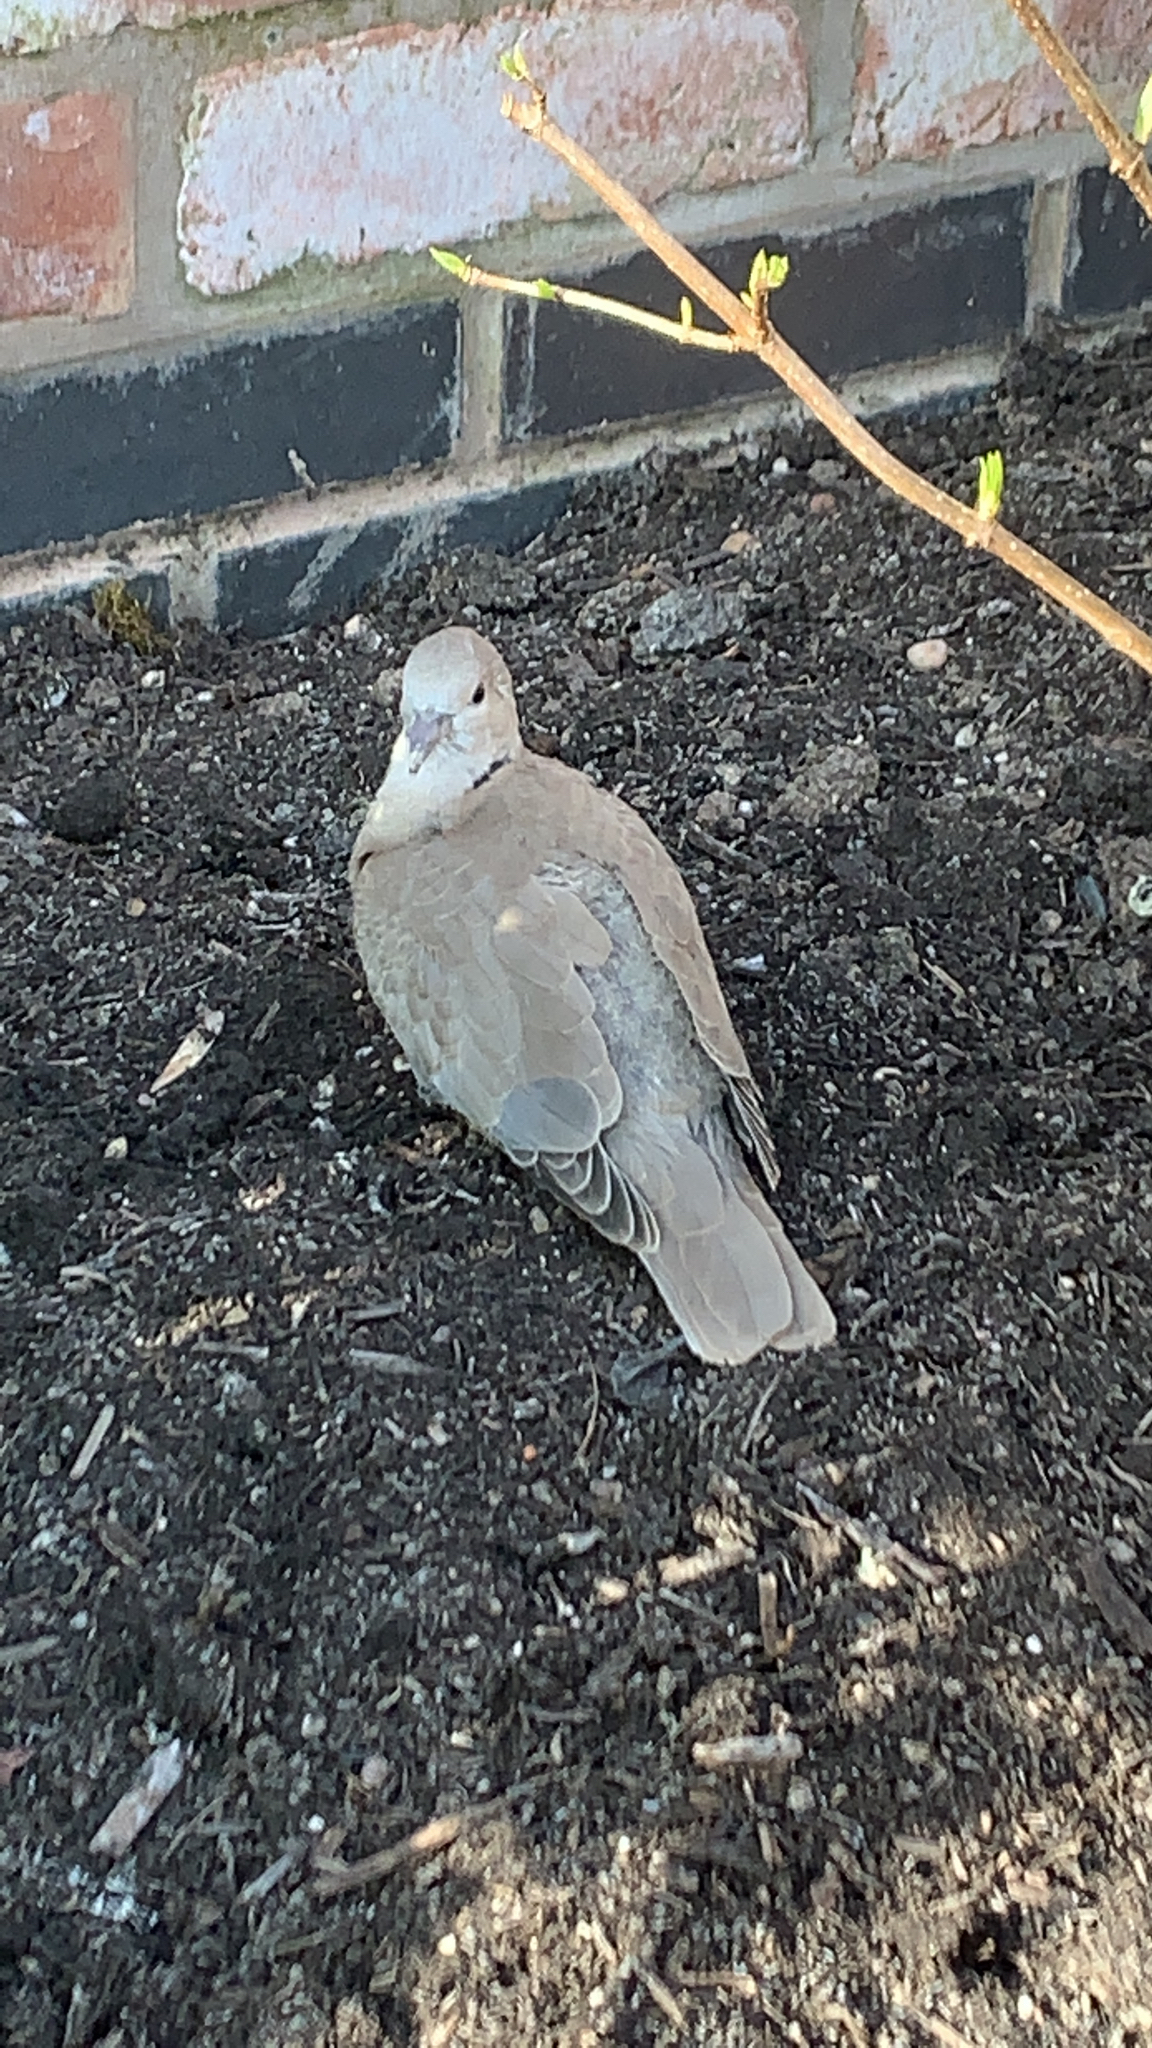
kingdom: Animalia
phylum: Chordata
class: Aves
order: Columbiformes
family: Columbidae
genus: Streptopelia
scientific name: Streptopelia decaocto
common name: Eurasian collared dove
